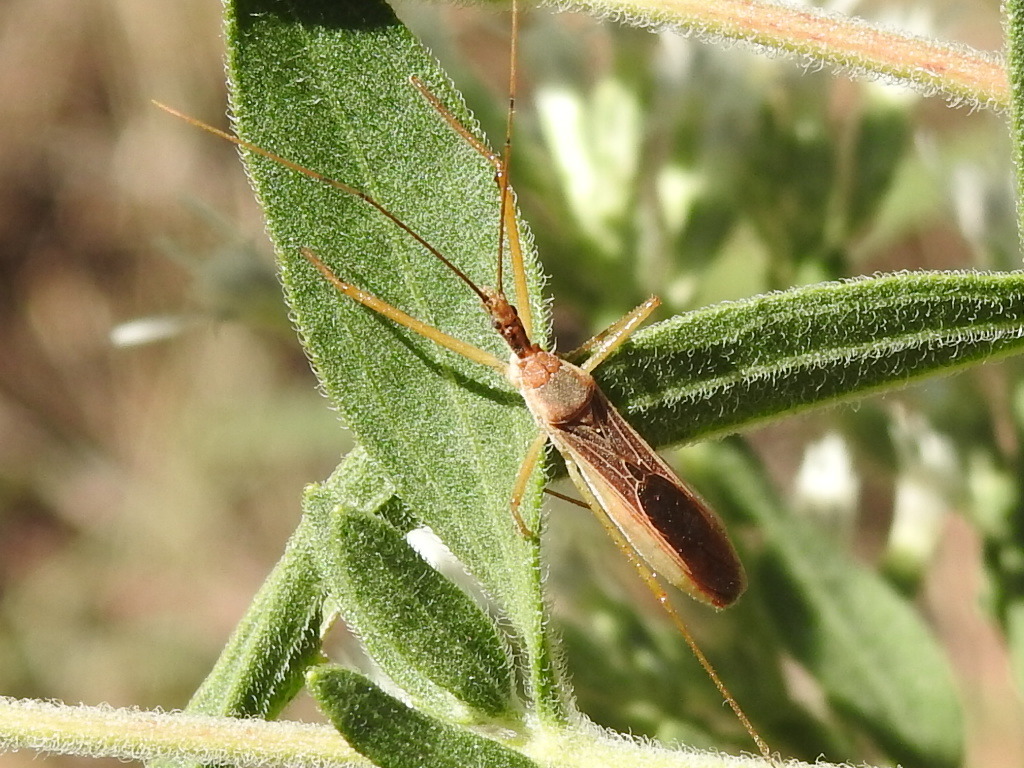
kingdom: Animalia
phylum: Arthropoda
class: Insecta
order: Hemiptera
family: Reduviidae
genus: Zelus
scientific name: Zelus cervicalis
